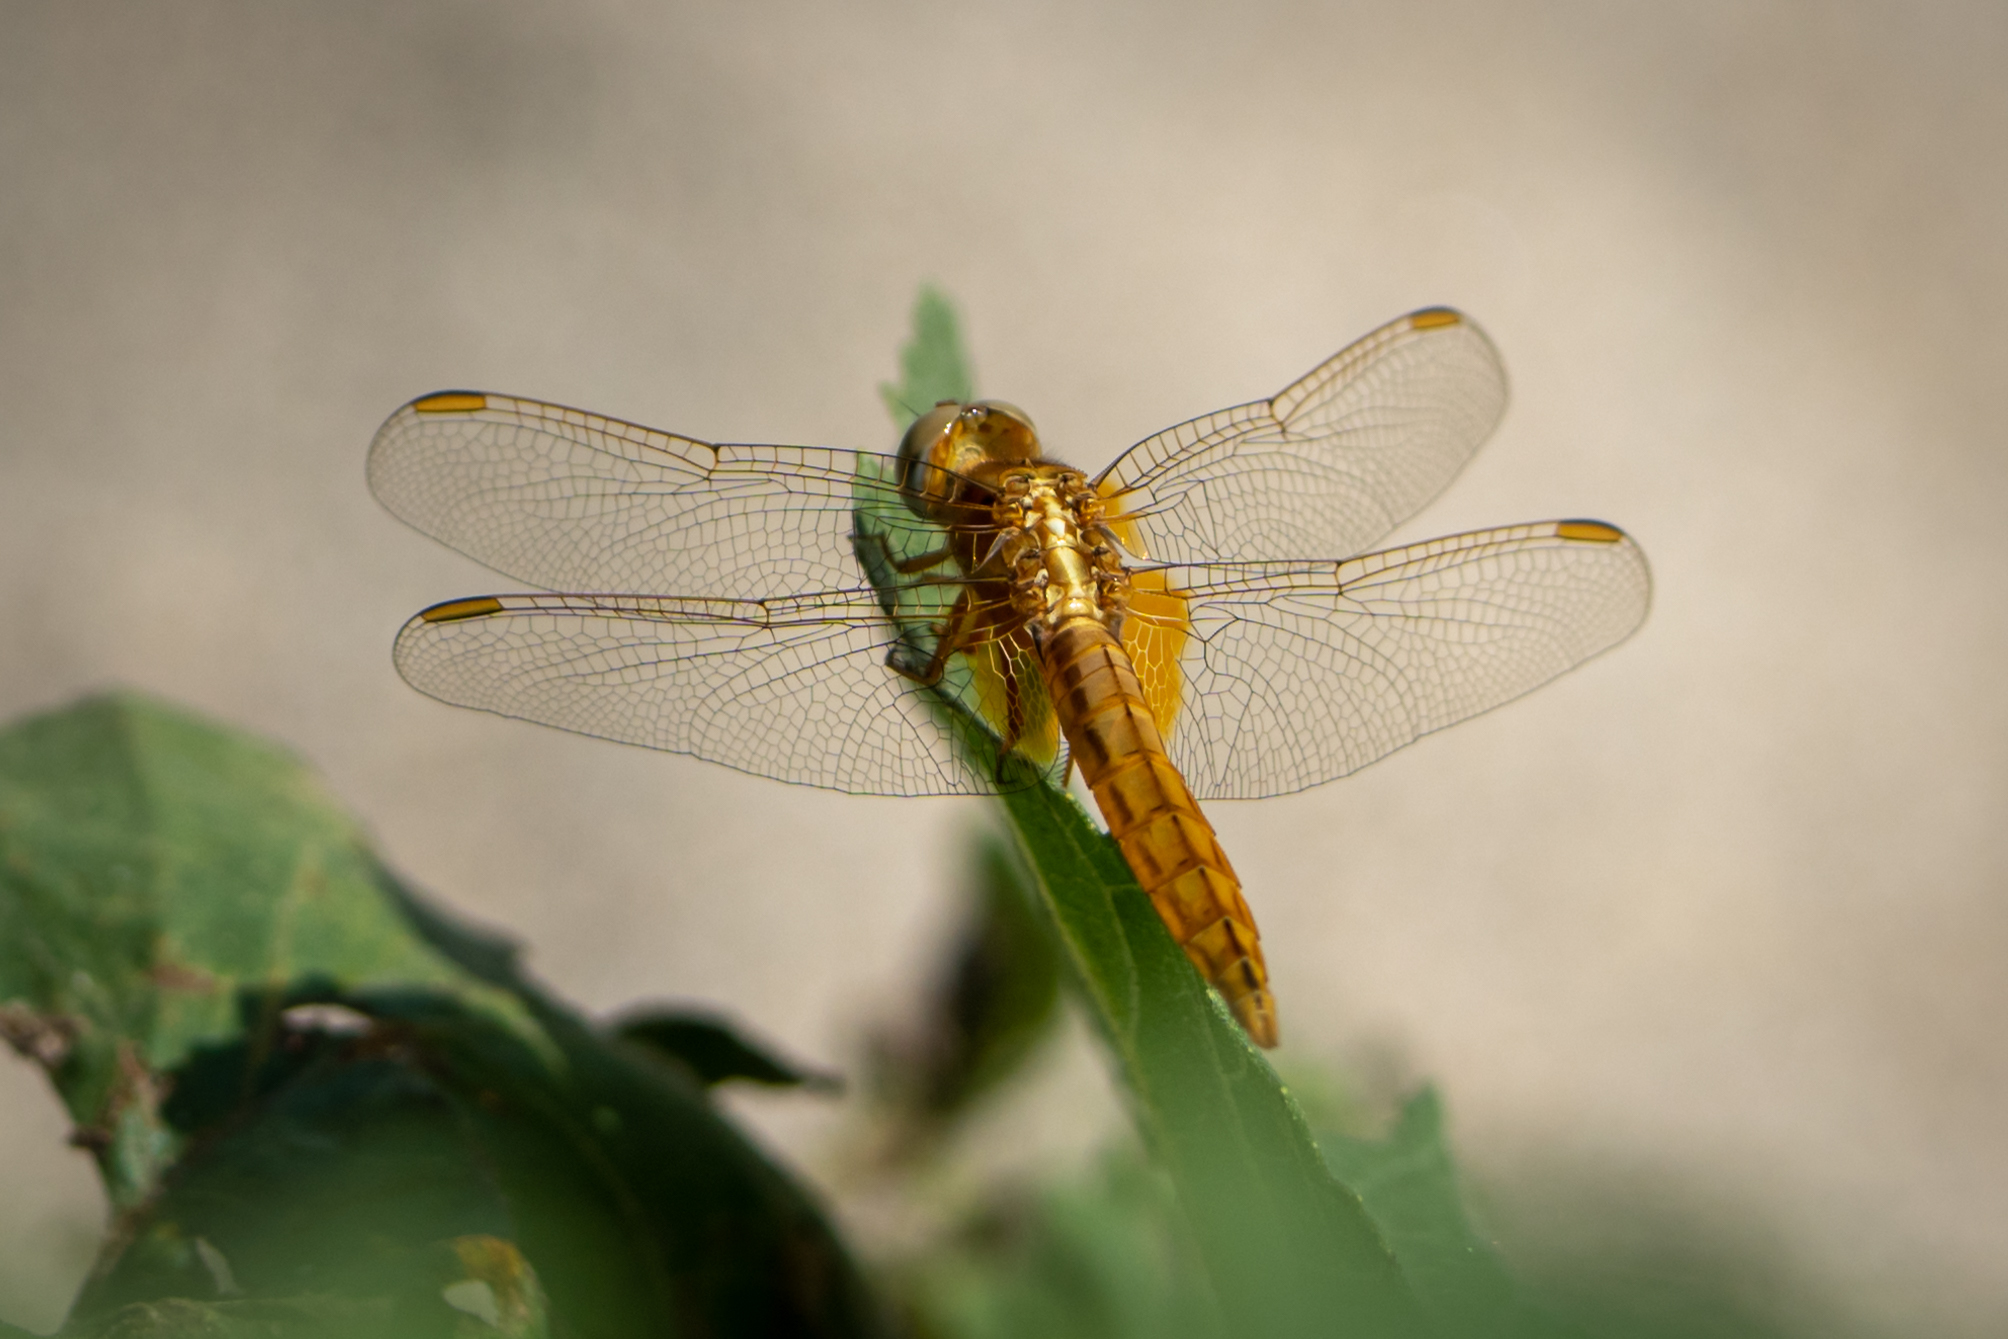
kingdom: Animalia
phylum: Arthropoda
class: Insecta
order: Odonata
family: Libellulidae
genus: Crocothemis
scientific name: Crocothemis erythraea
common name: Scarlet dragonfly
